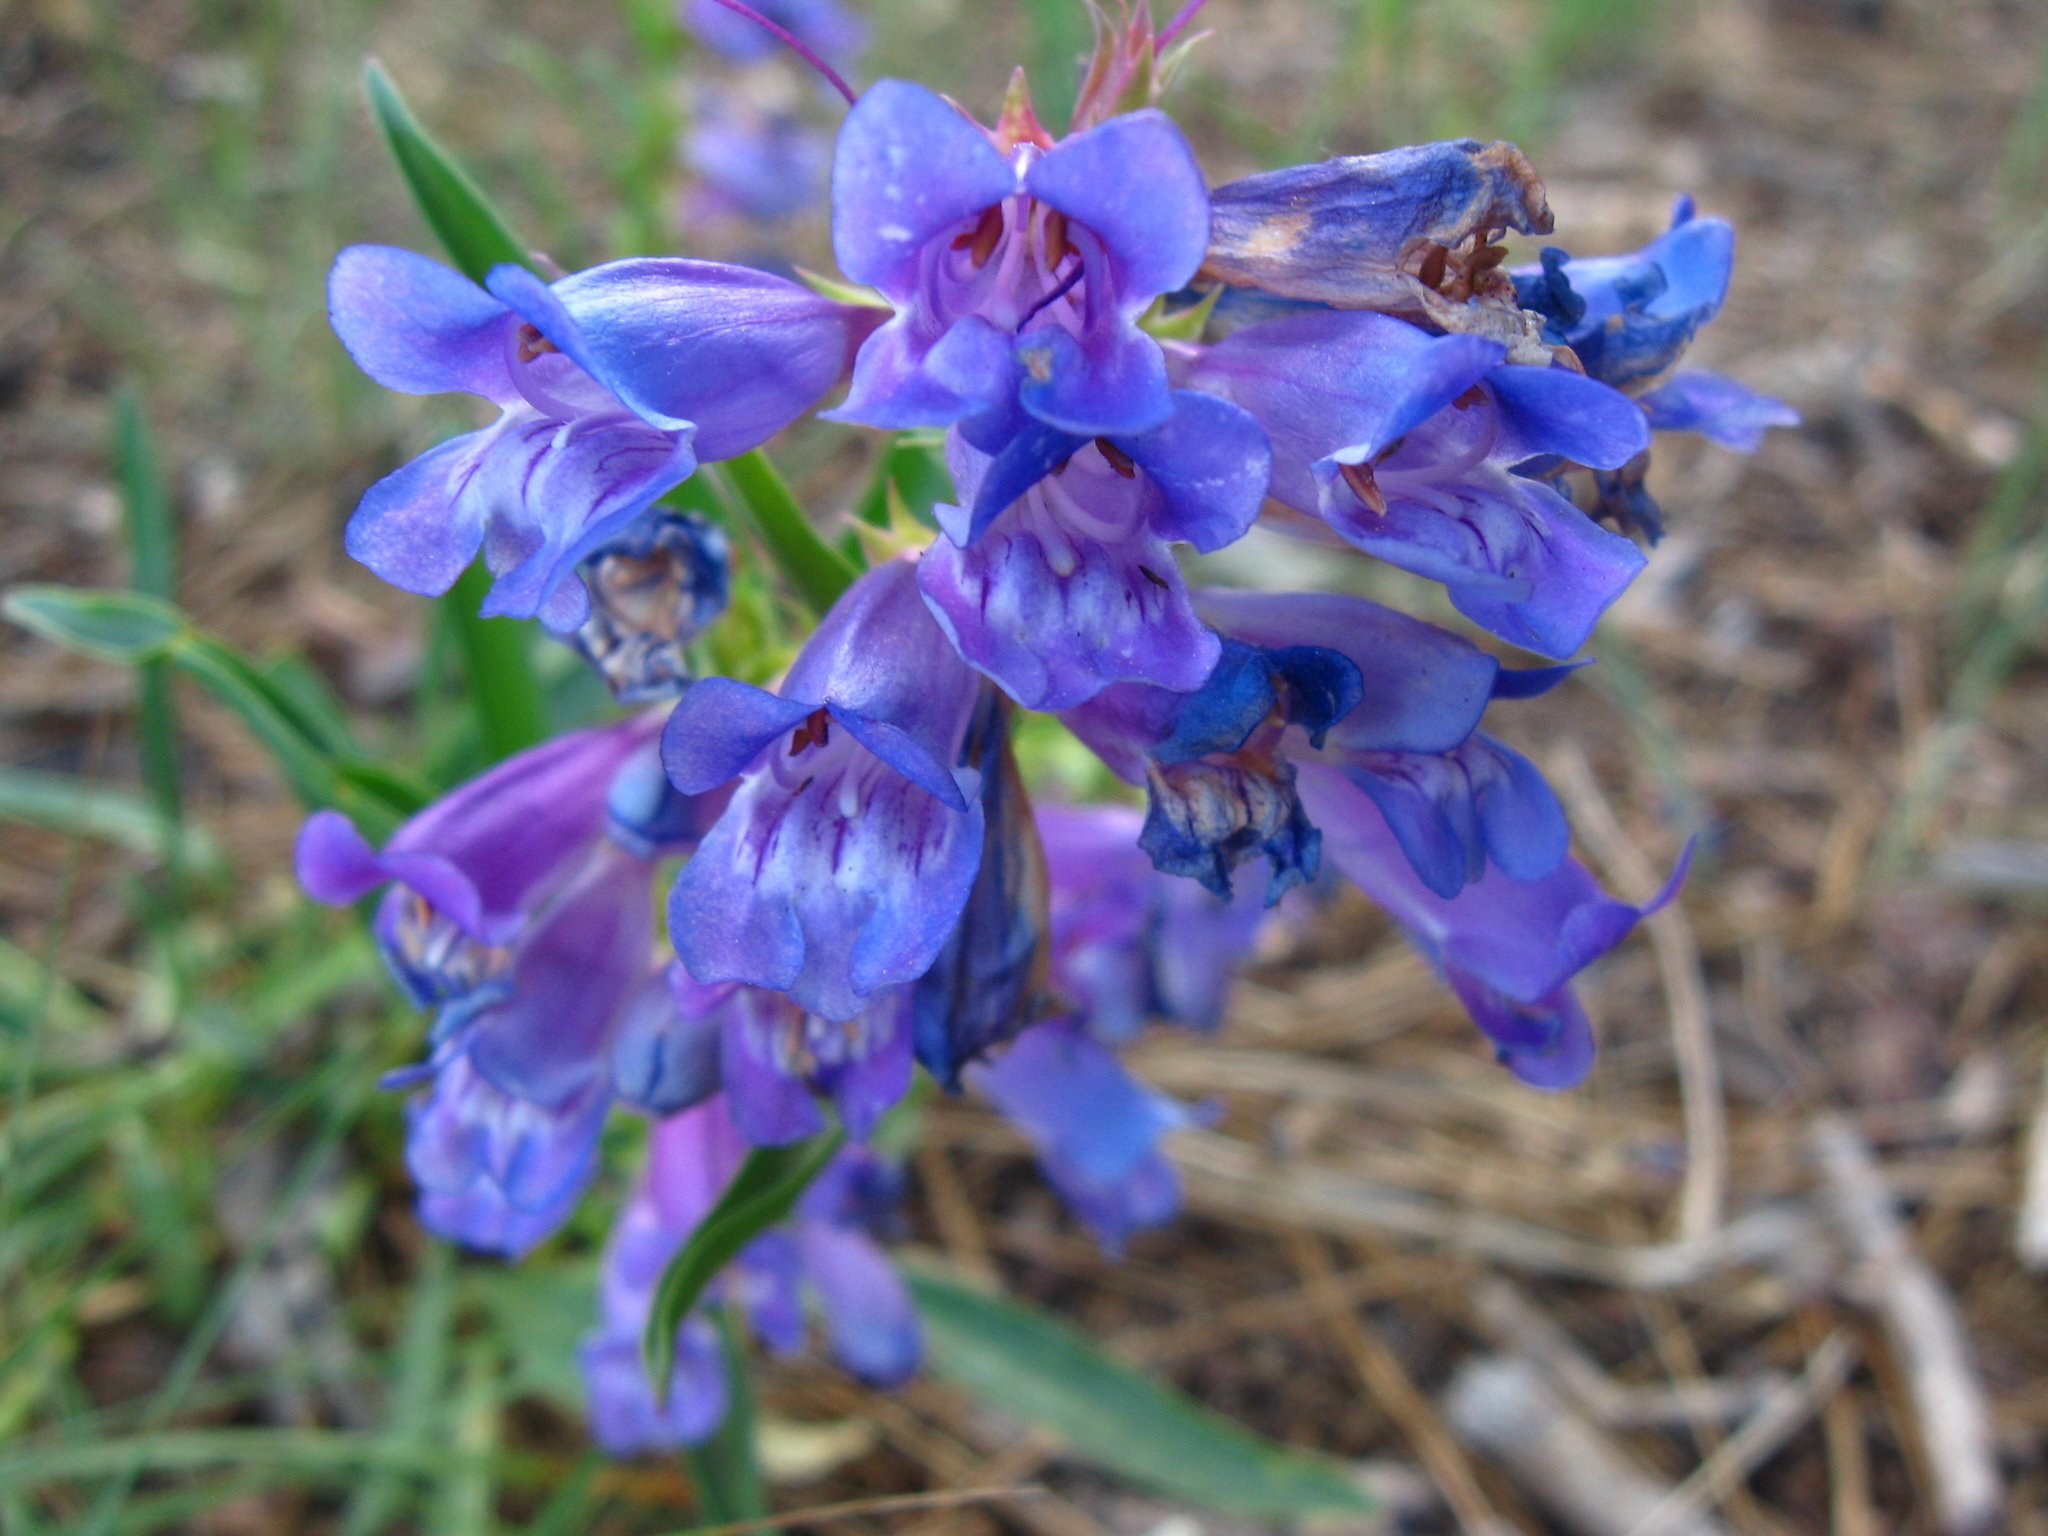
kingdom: Plantae
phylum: Tracheophyta
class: Magnoliopsida
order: Lamiales
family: Plantaginaceae
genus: Penstemon
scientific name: Penstemon speciosus
